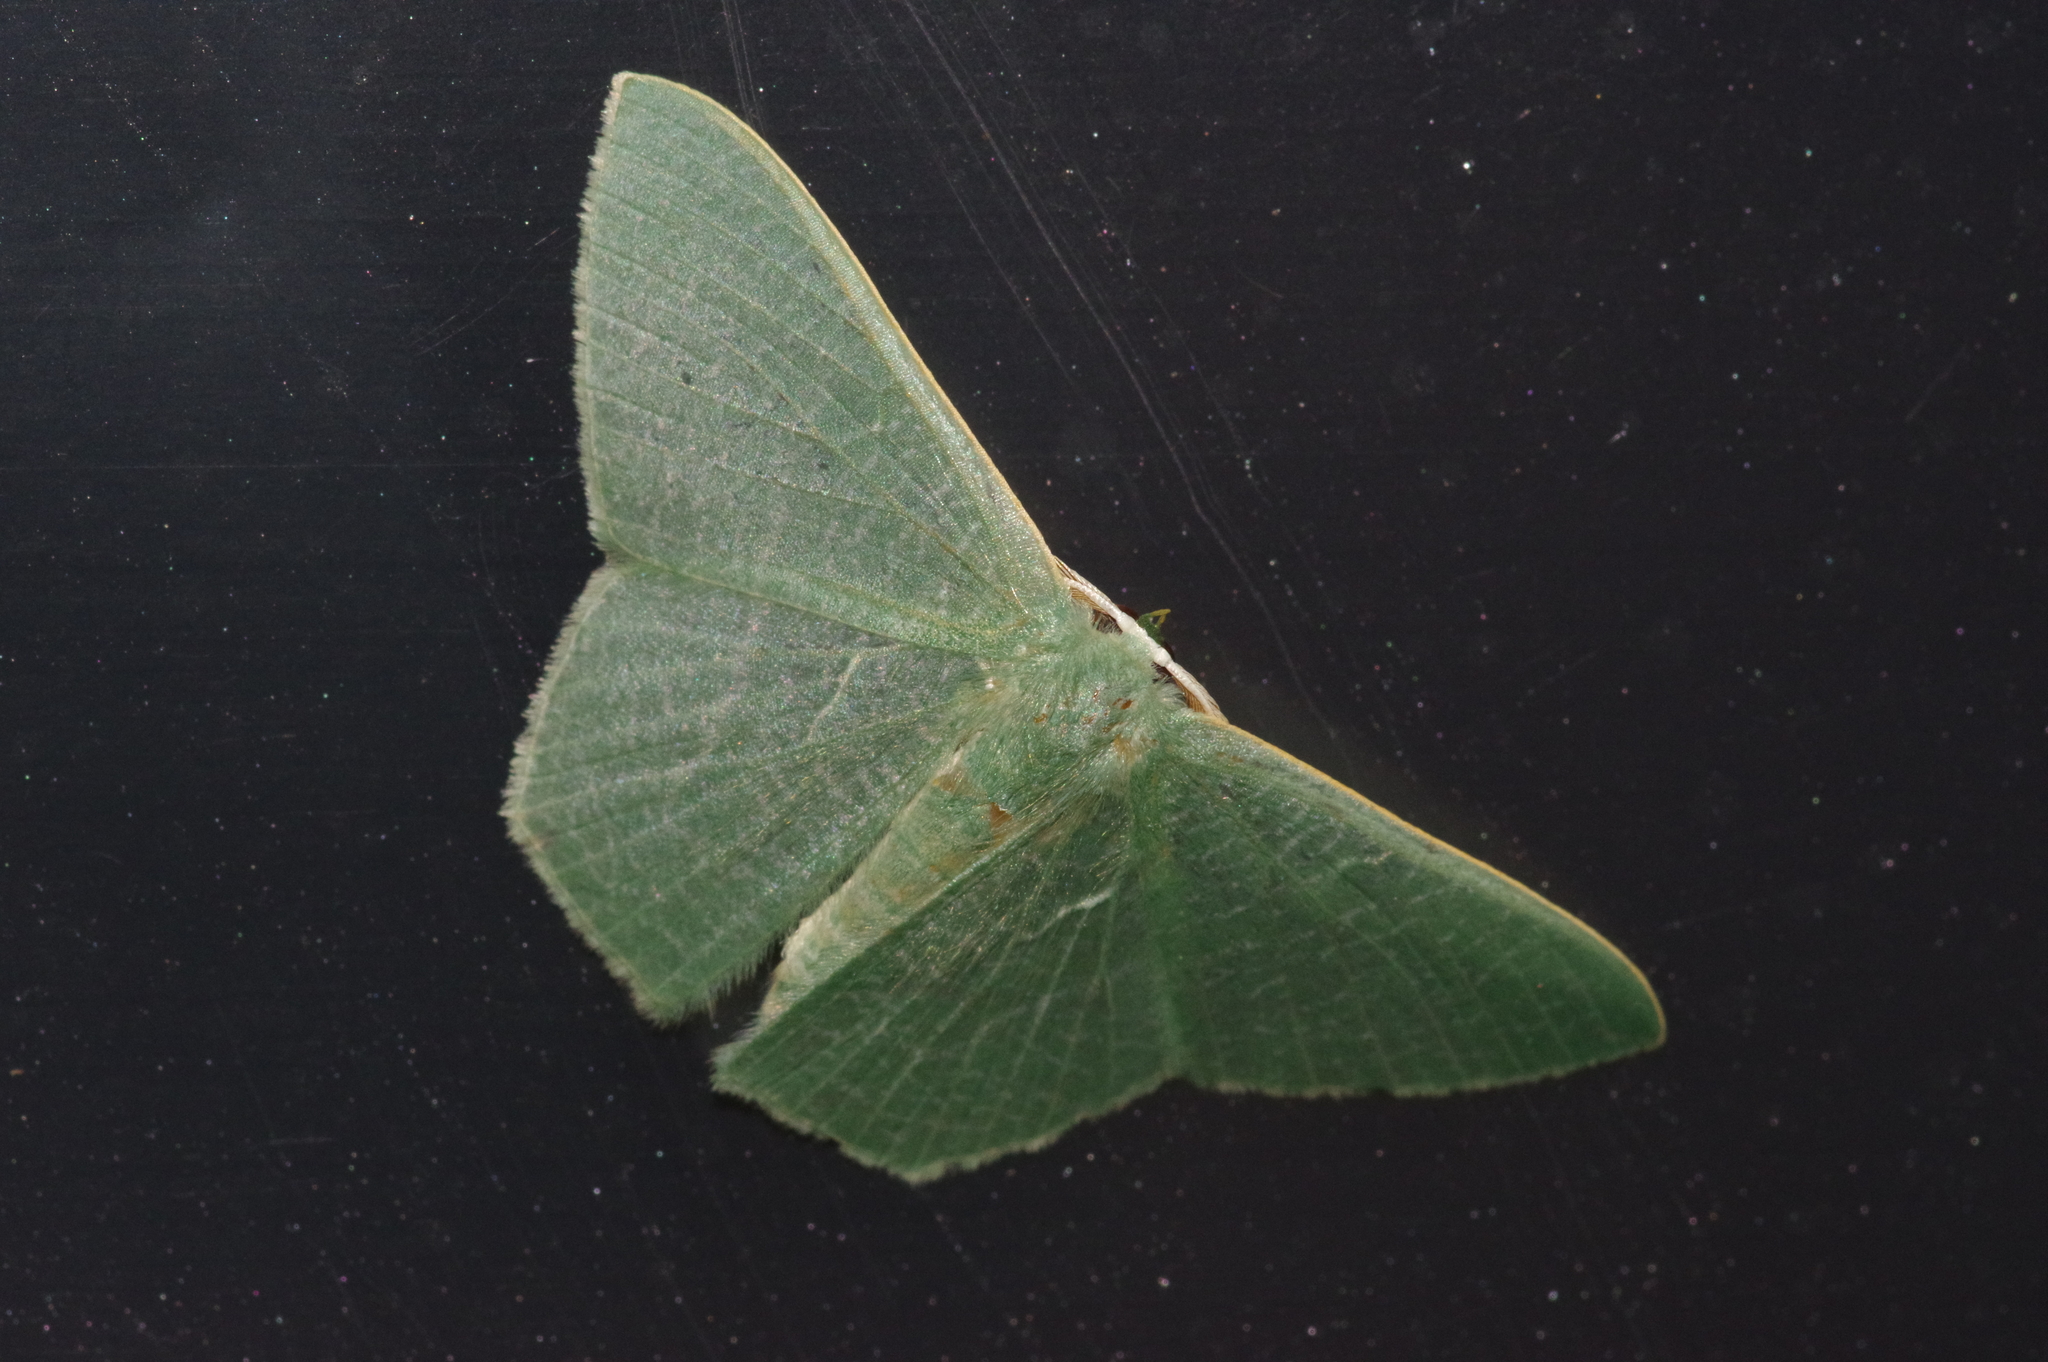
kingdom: Animalia
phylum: Arthropoda
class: Insecta
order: Lepidoptera
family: Geometridae
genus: Thalassodes
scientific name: Thalassodes immissaria
